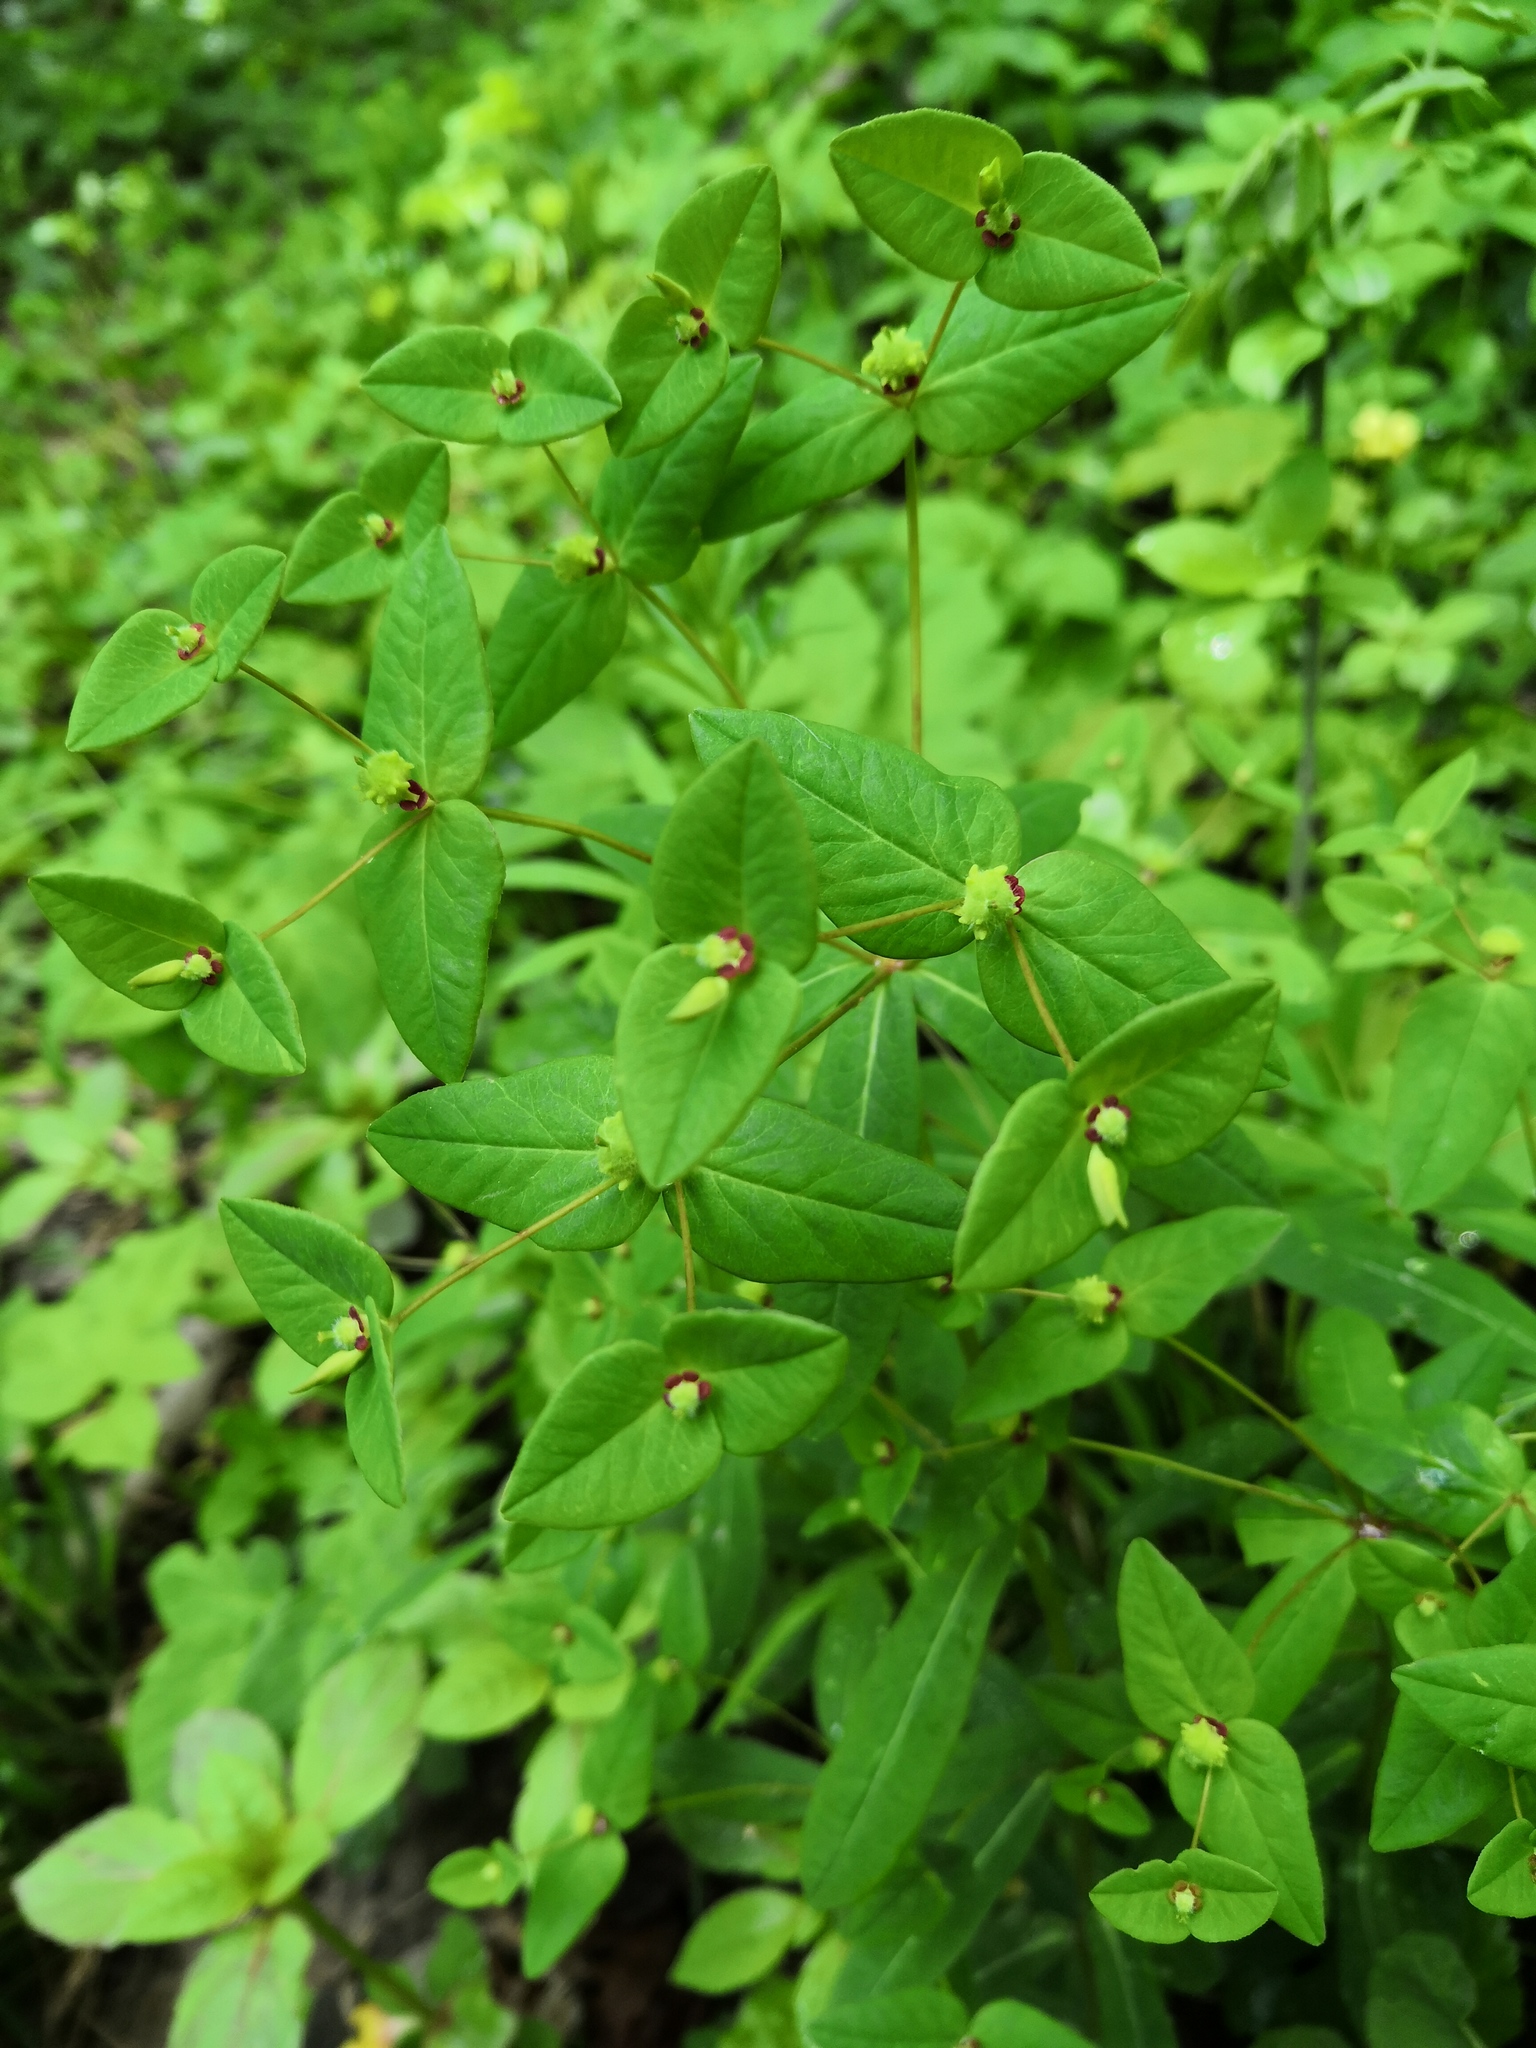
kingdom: Plantae
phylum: Tracheophyta
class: Magnoliopsida
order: Malpighiales
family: Euphorbiaceae
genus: Euphorbia
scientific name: Euphorbia dulcis
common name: Sweet spurge
